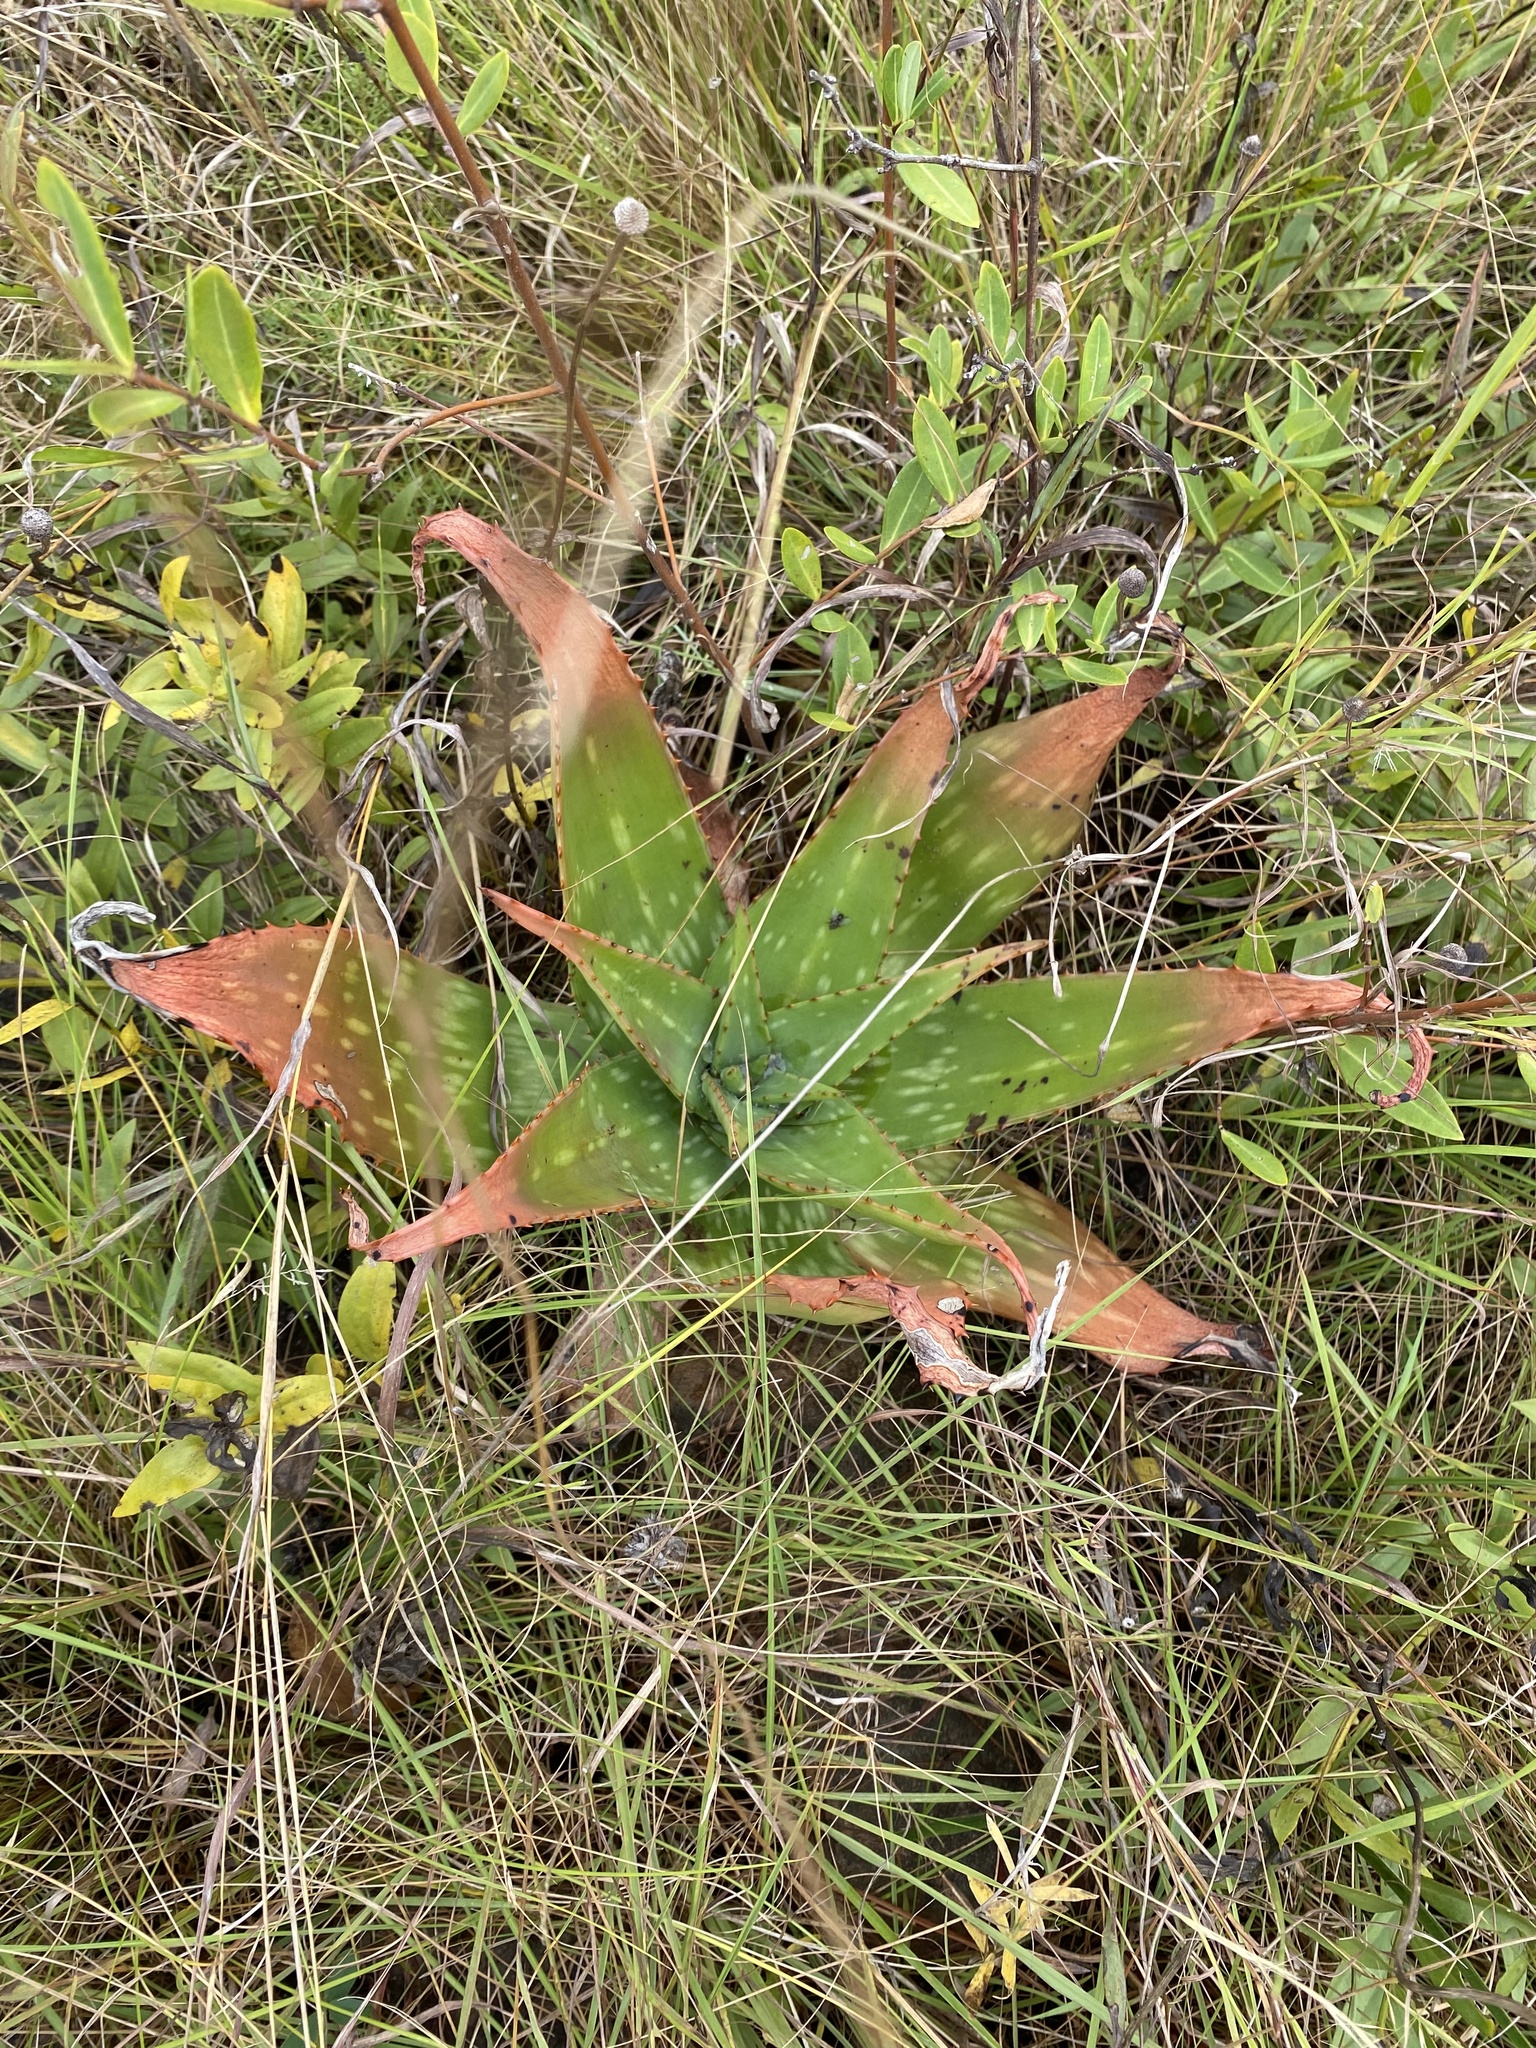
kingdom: Plantae
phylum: Tracheophyta
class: Liliopsida
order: Asparagales
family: Asphodelaceae
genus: Aloe
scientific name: Aloe maculata
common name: Broadleaf aloe
